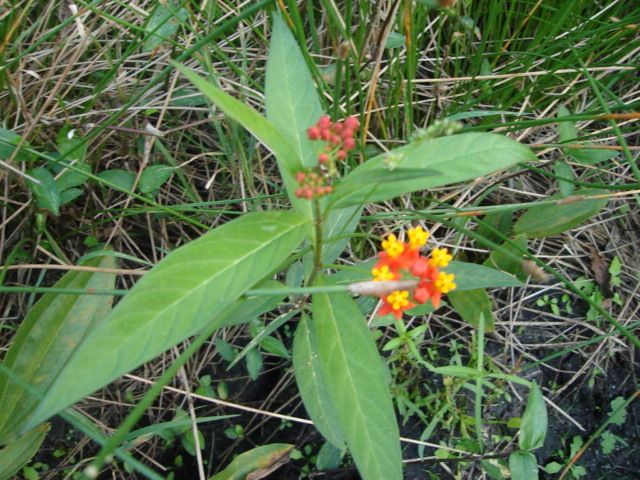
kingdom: Plantae
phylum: Tracheophyta
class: Magnoliopsida
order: Gentianales
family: Apocynaceae
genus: Asclepias
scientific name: Asclepias curassavica
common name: Bloodflower
